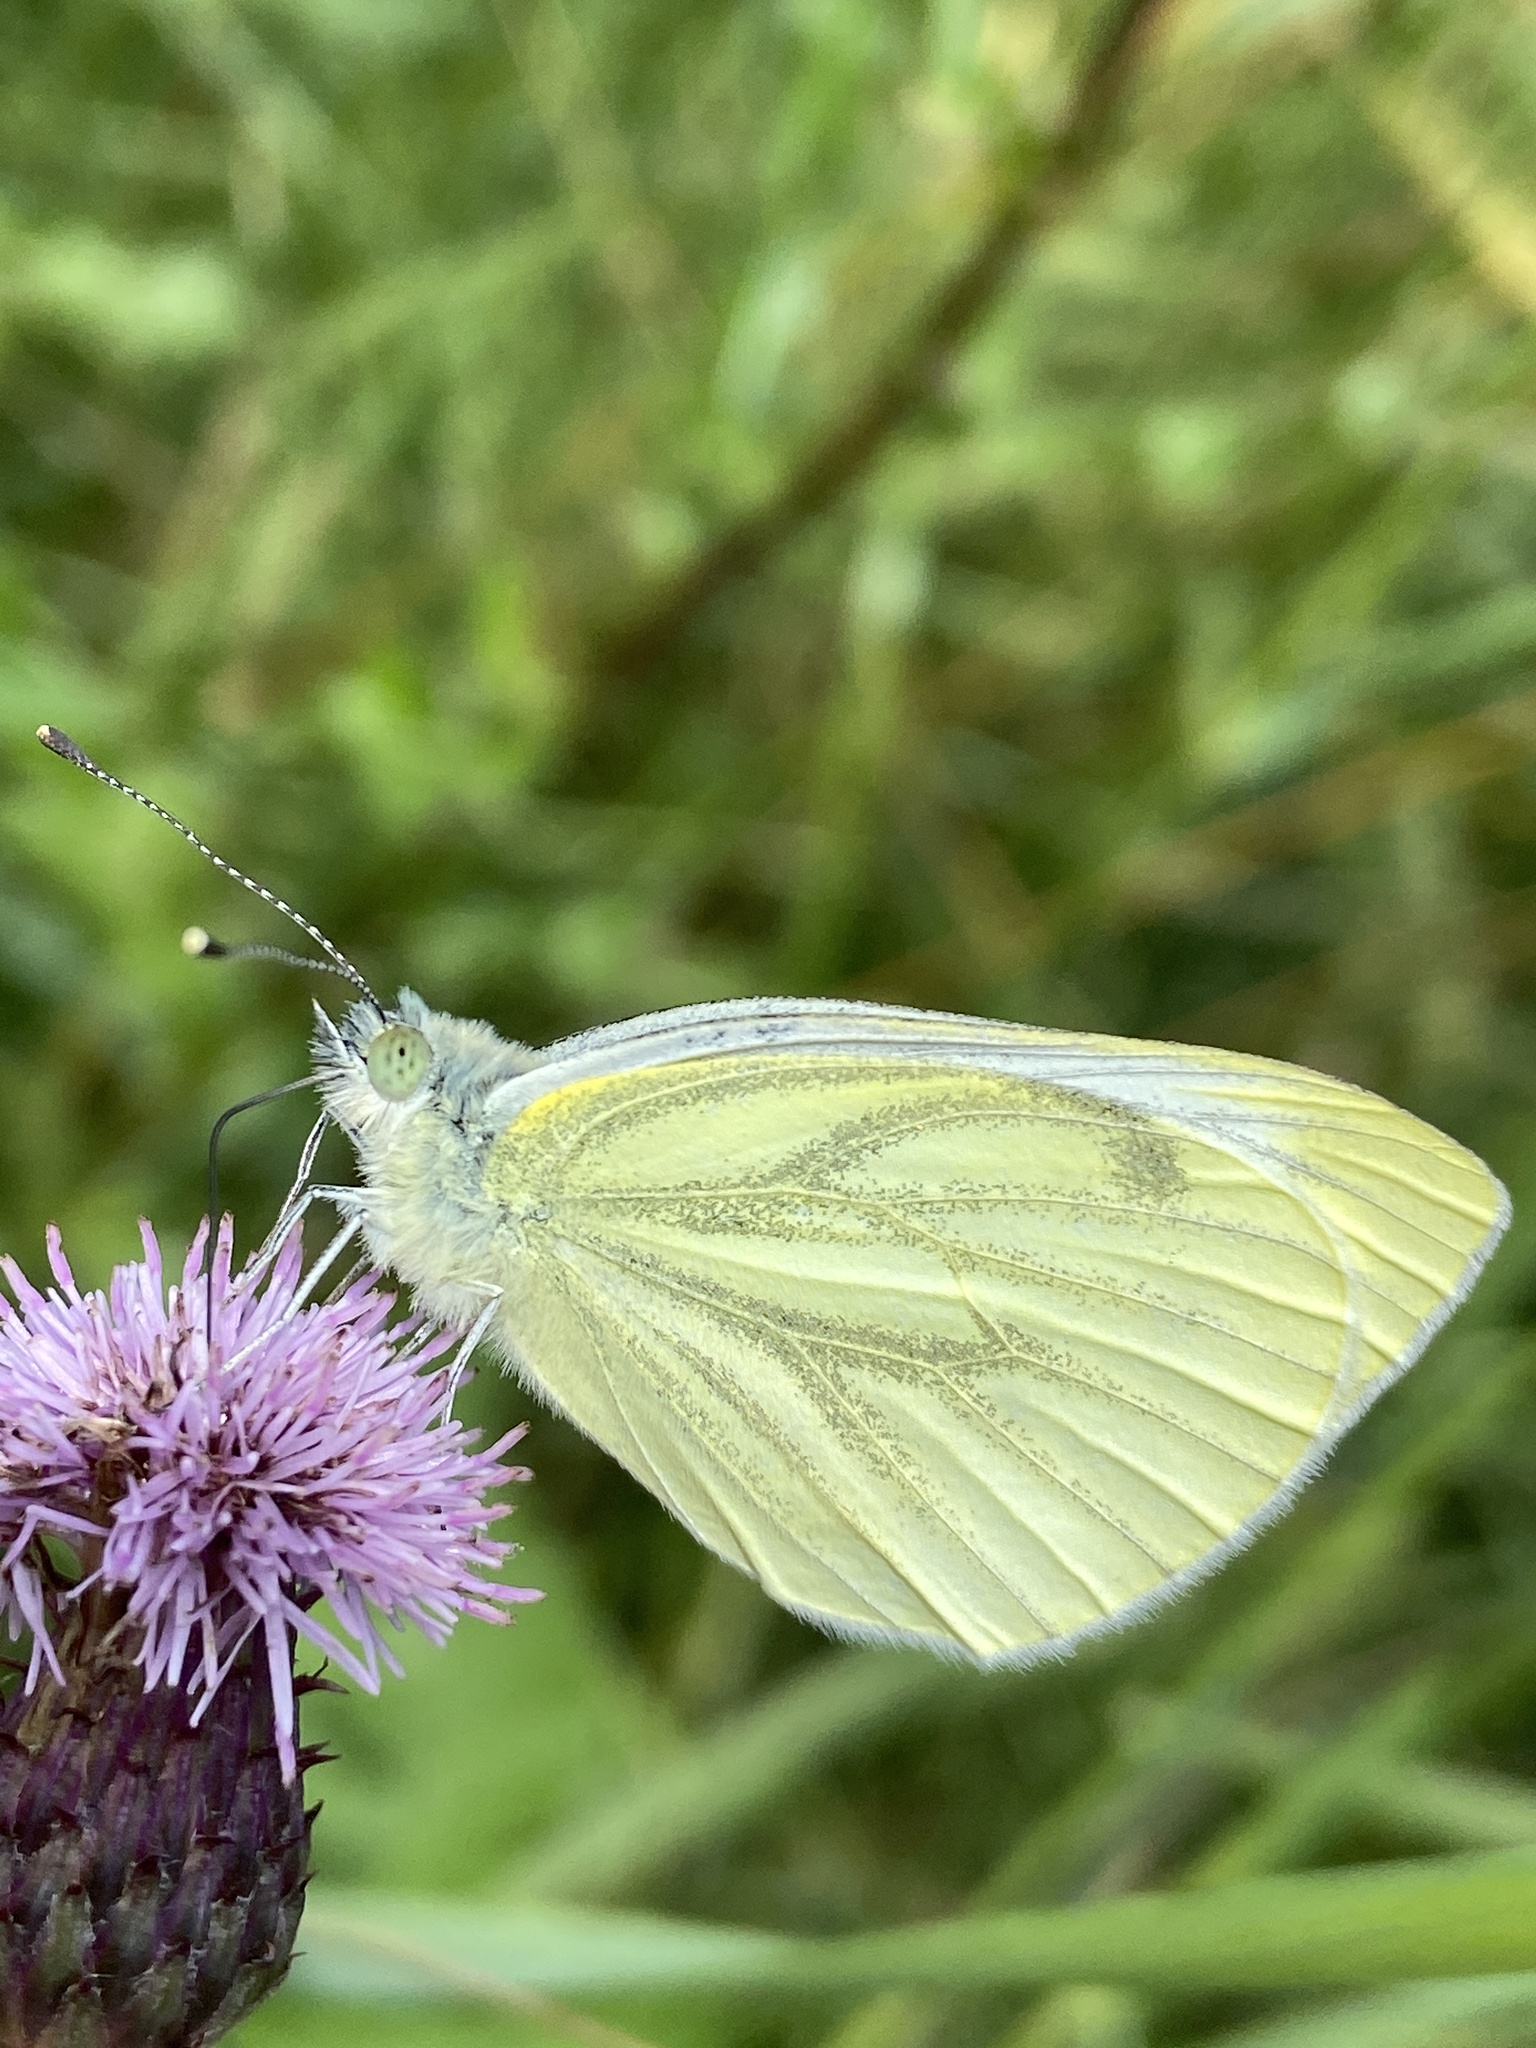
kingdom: Animalia
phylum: Arthropoda
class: Insecta
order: Lepidoptera
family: Pieridae
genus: Pieris
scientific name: Pieris napi
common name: Green-veined white
